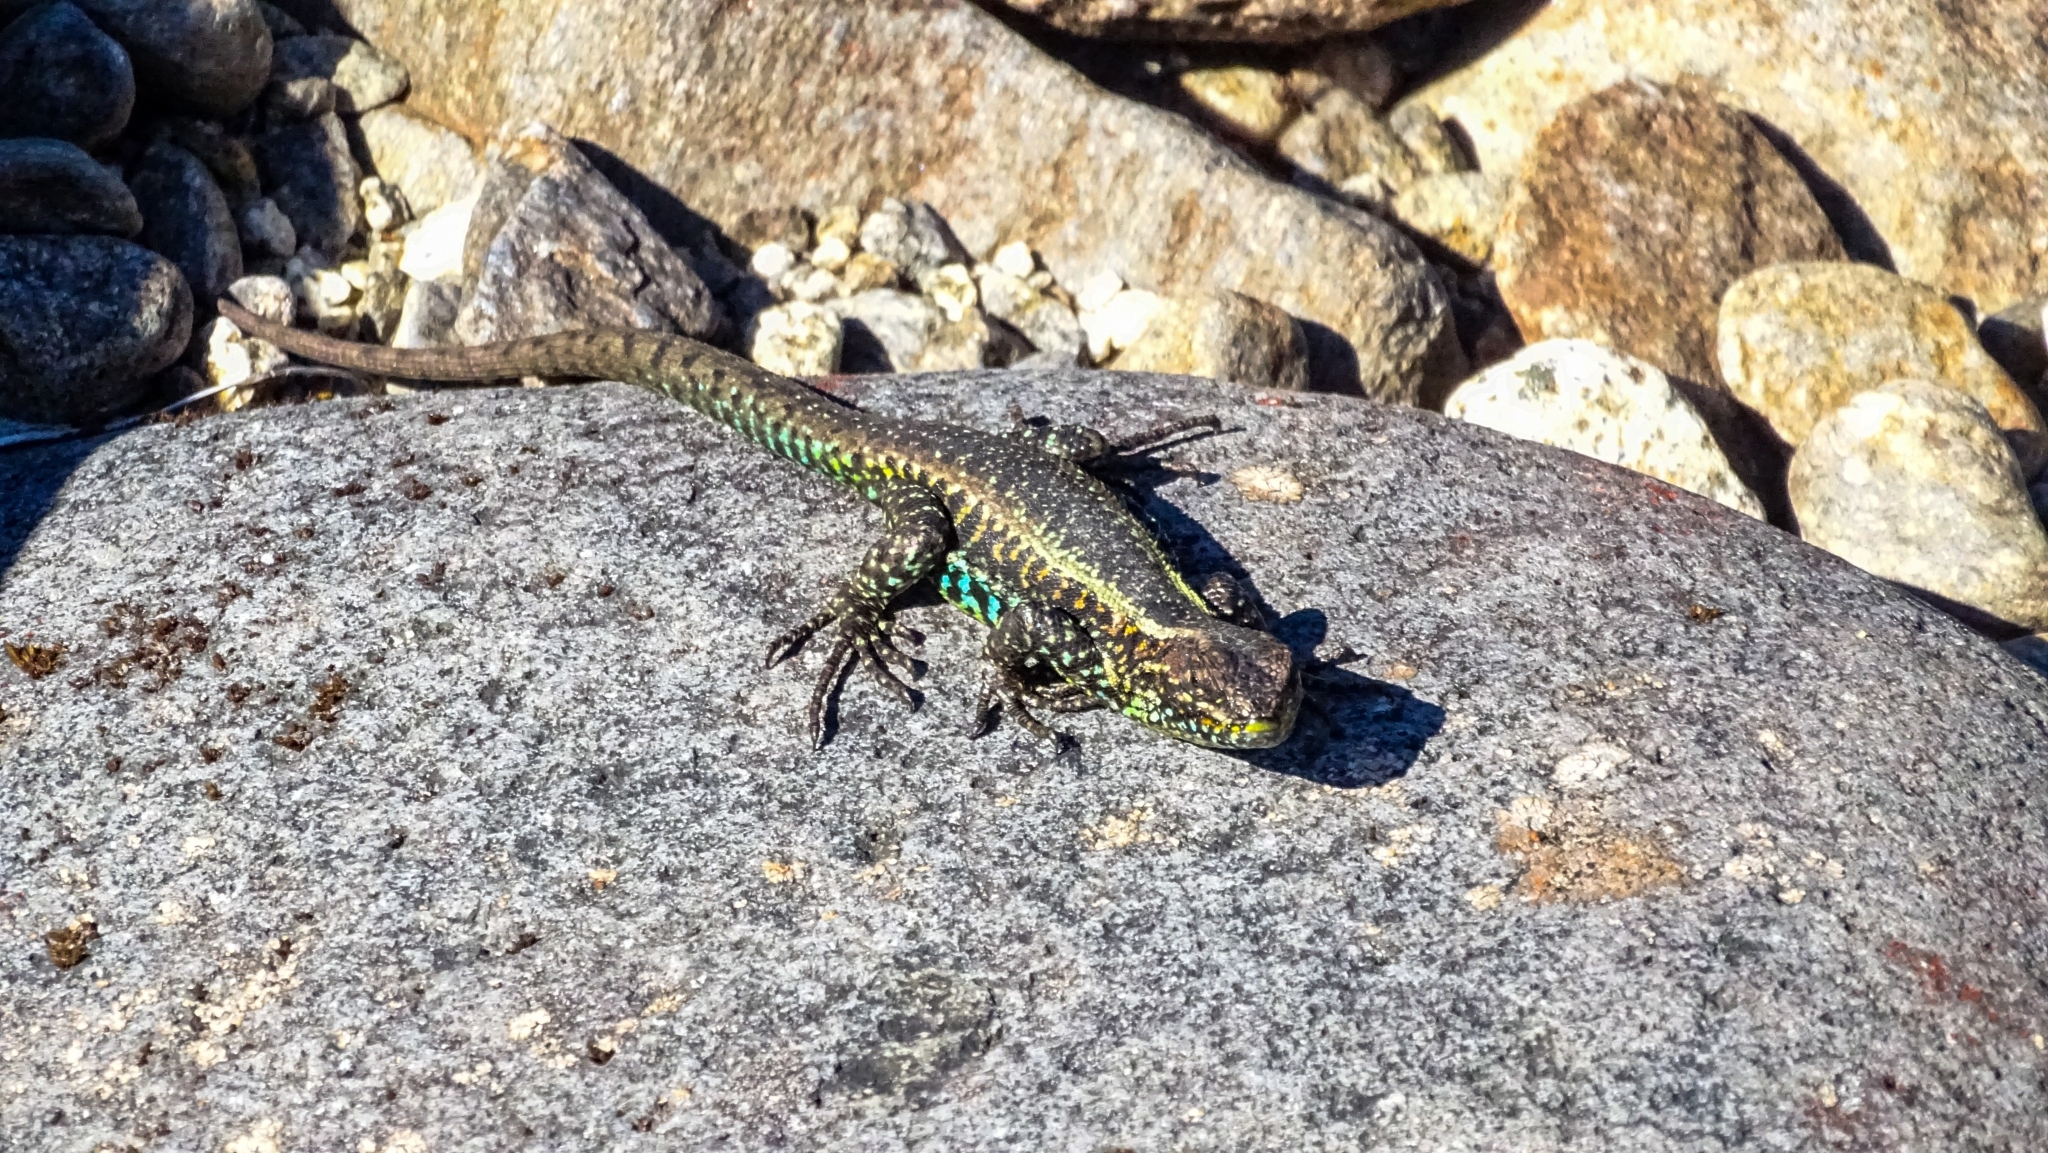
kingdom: Animalia
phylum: Chordata
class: Squamata
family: Liolaemidae
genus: Liolaemus
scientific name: Liolaemus pictus
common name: Painted tree iguana
